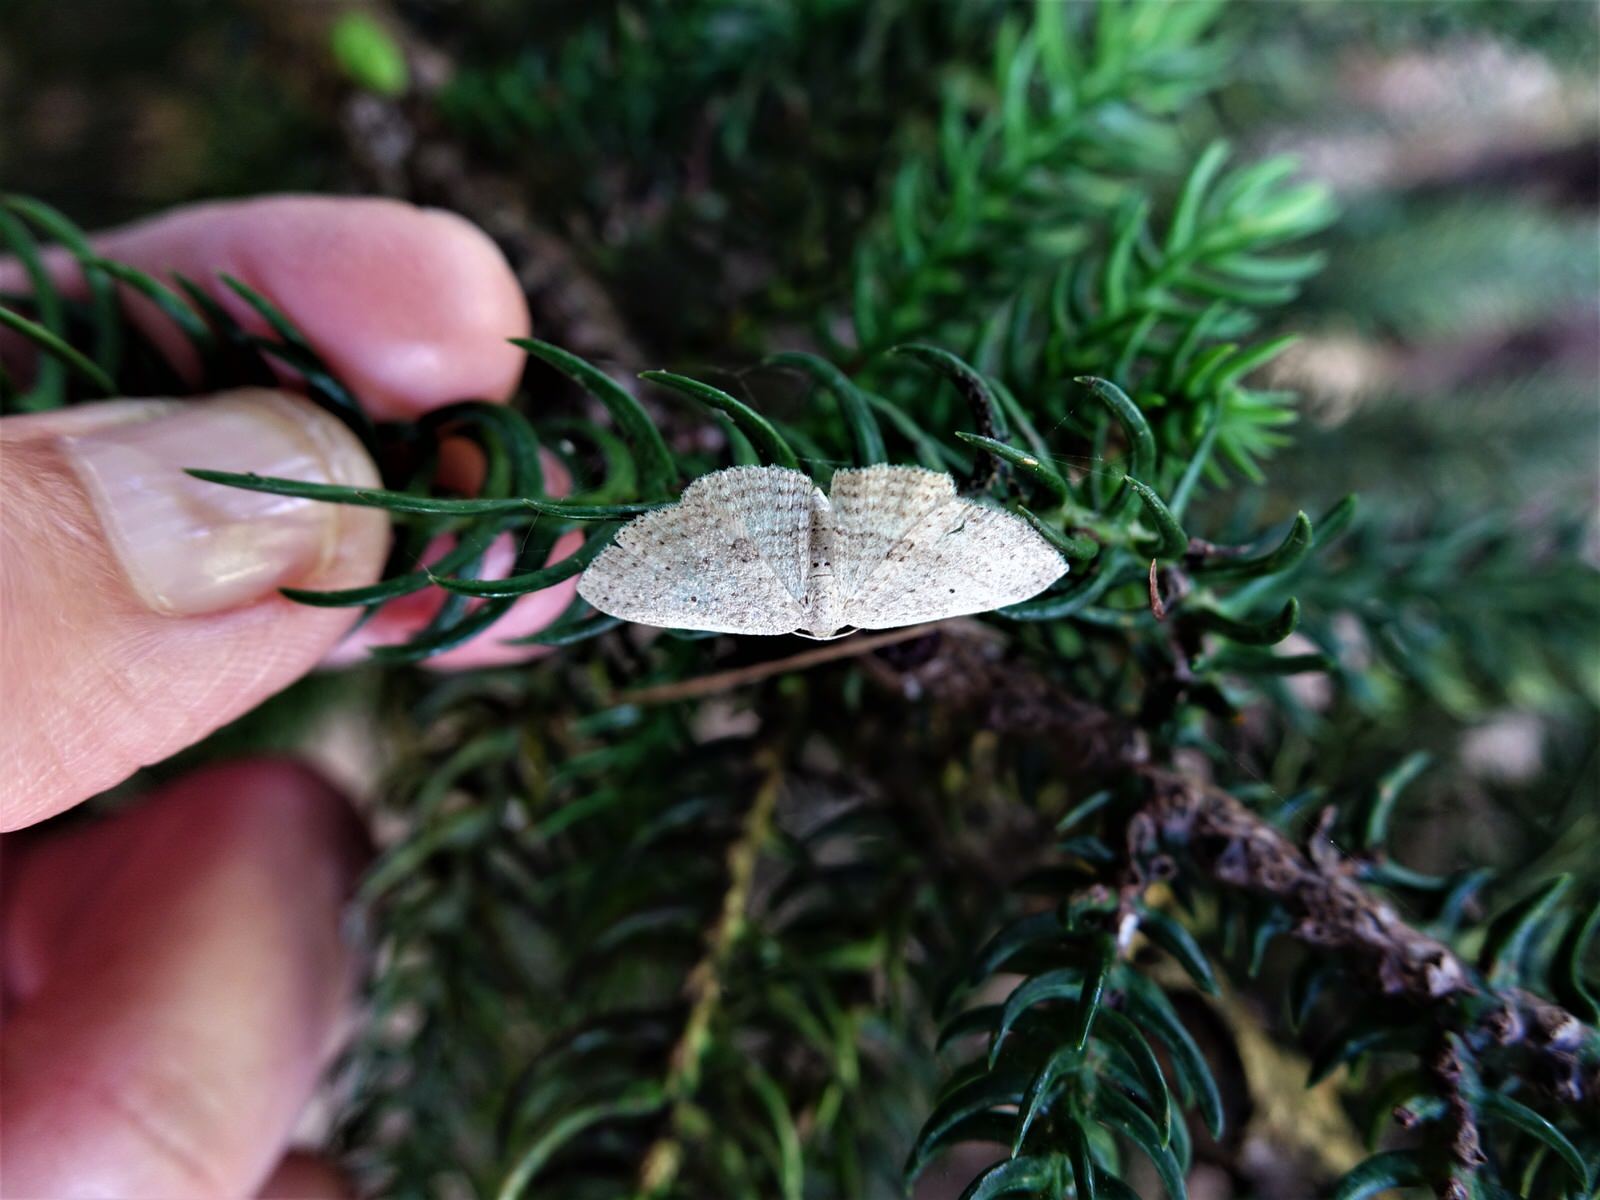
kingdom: Animalia
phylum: Arthropoda
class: Insecta
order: Lepidoptera
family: Geometridae
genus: Poecilasthena
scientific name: Poecilasthena schistaria
